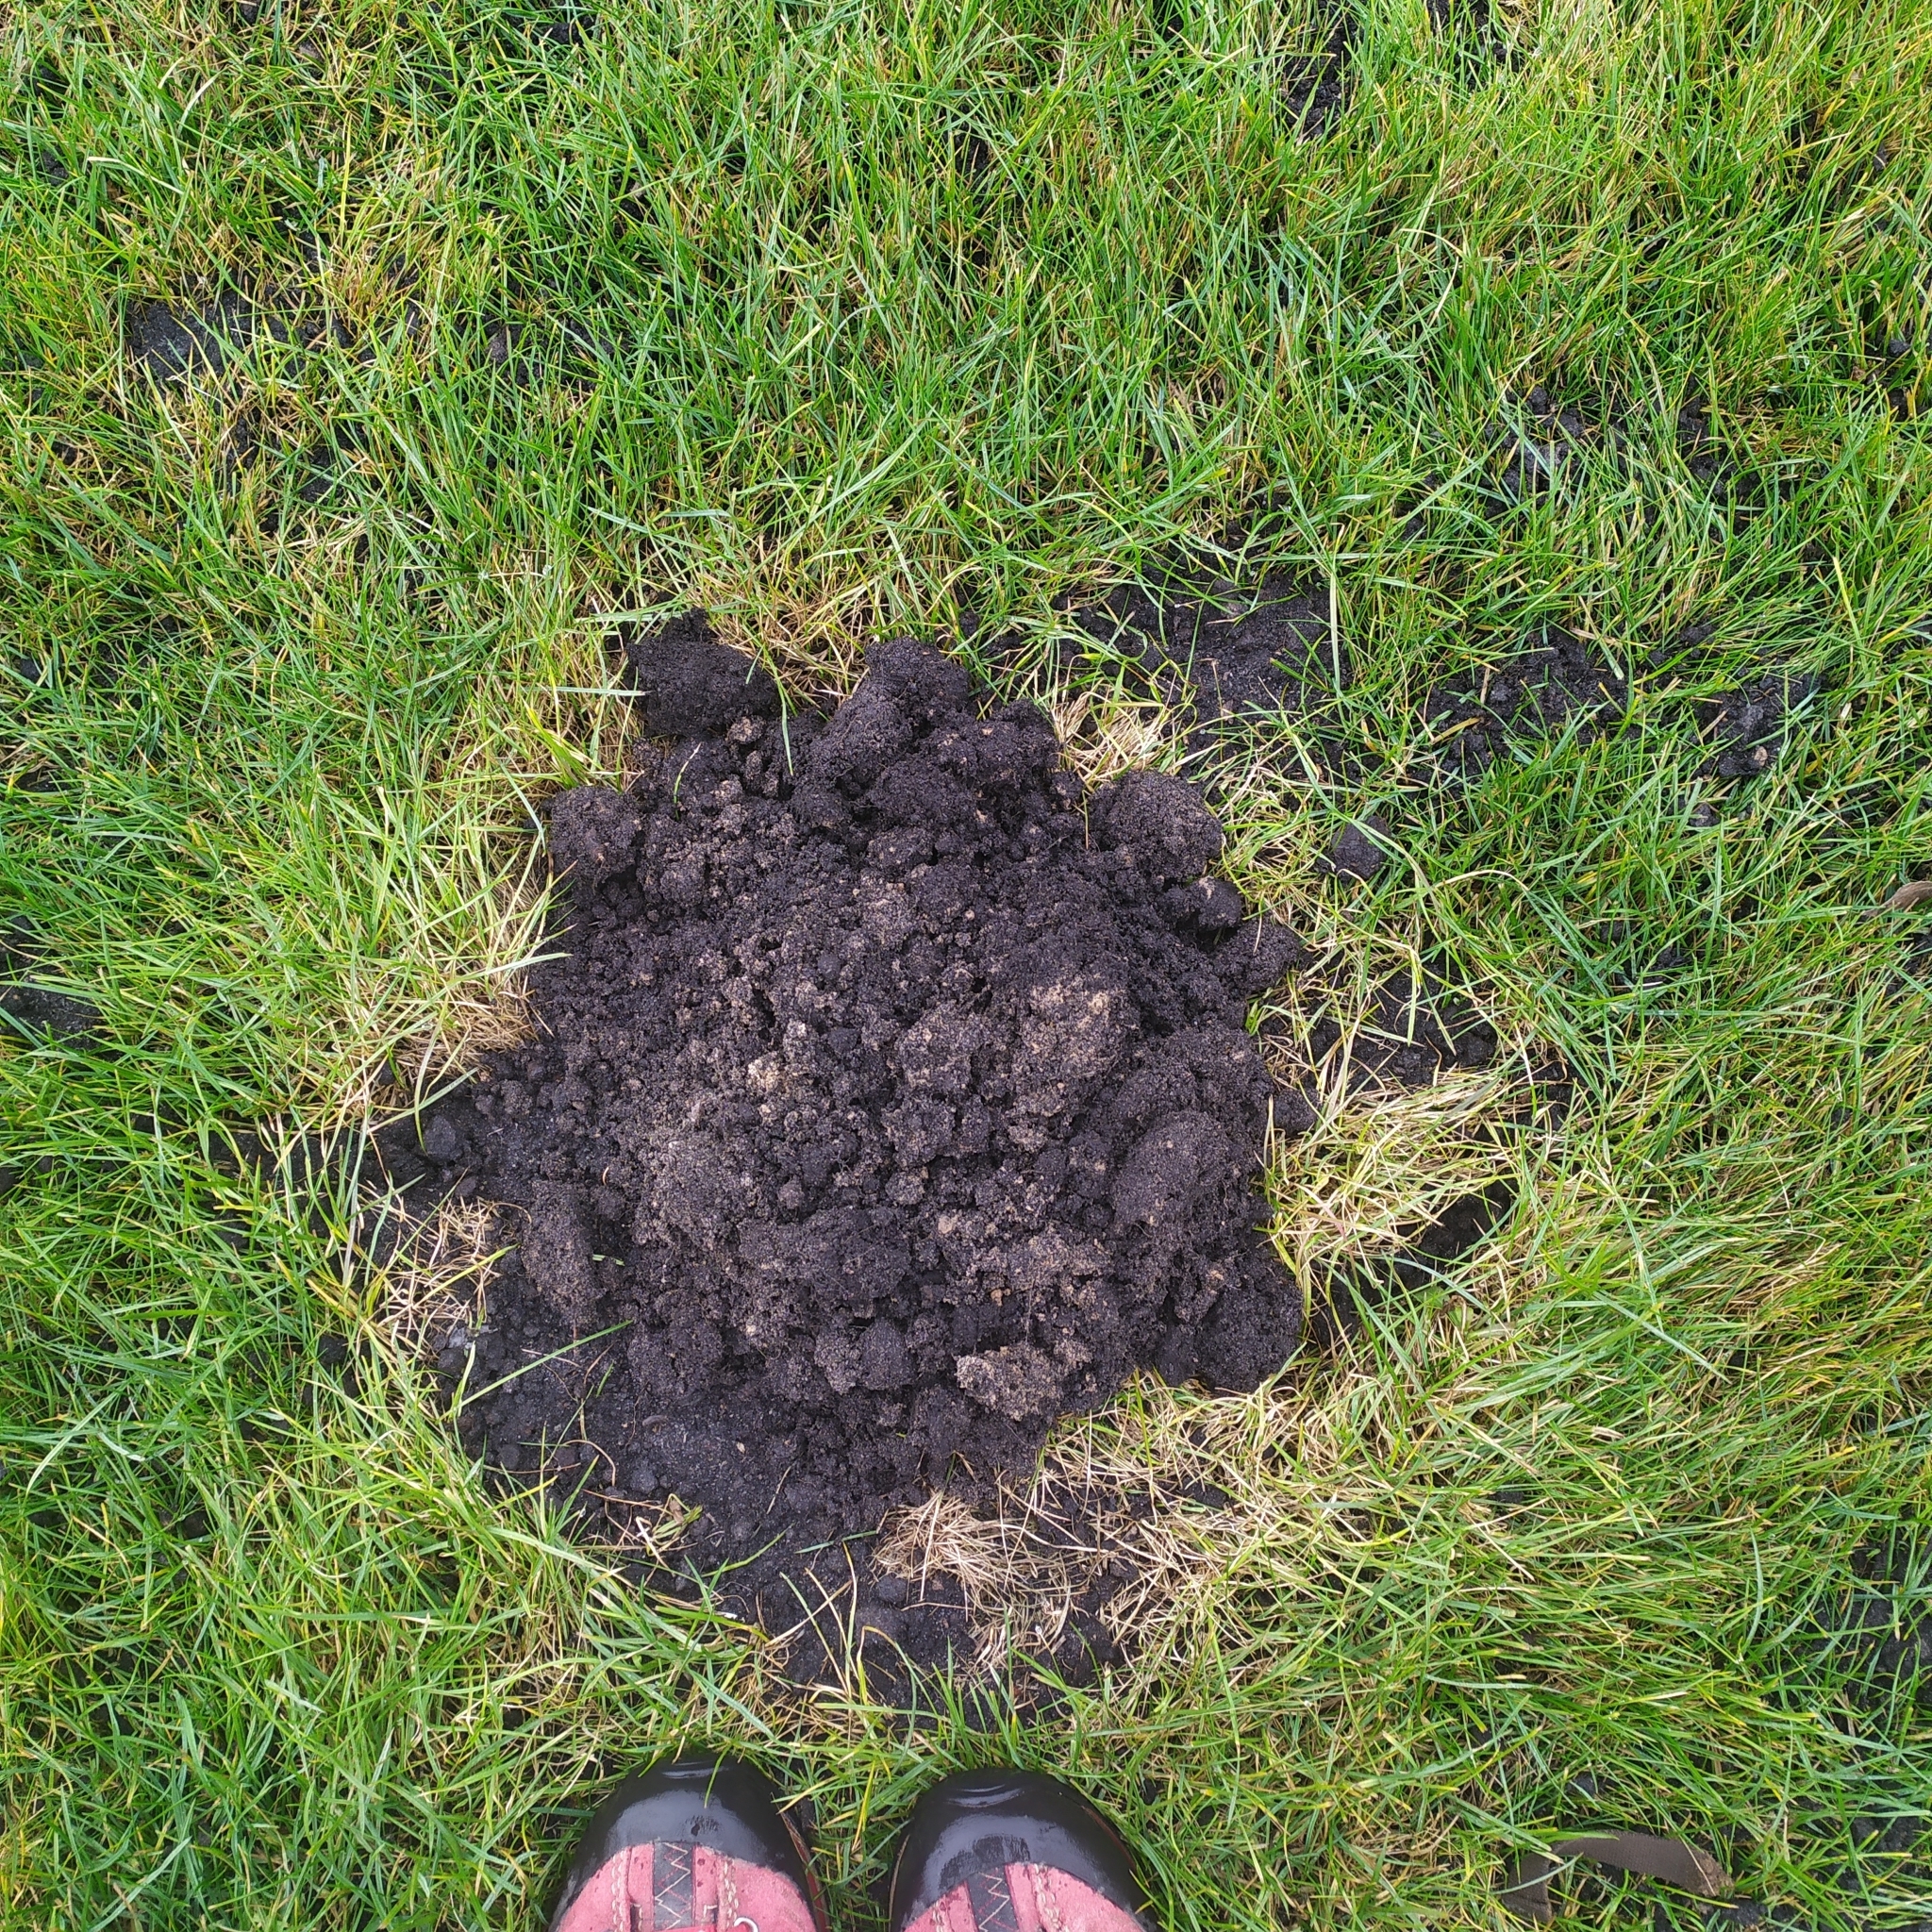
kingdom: Animalia
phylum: Chordata
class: Mammalia
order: Soricomorpha
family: Talpidae
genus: Talpa
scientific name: Talpa europaea
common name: European mole
